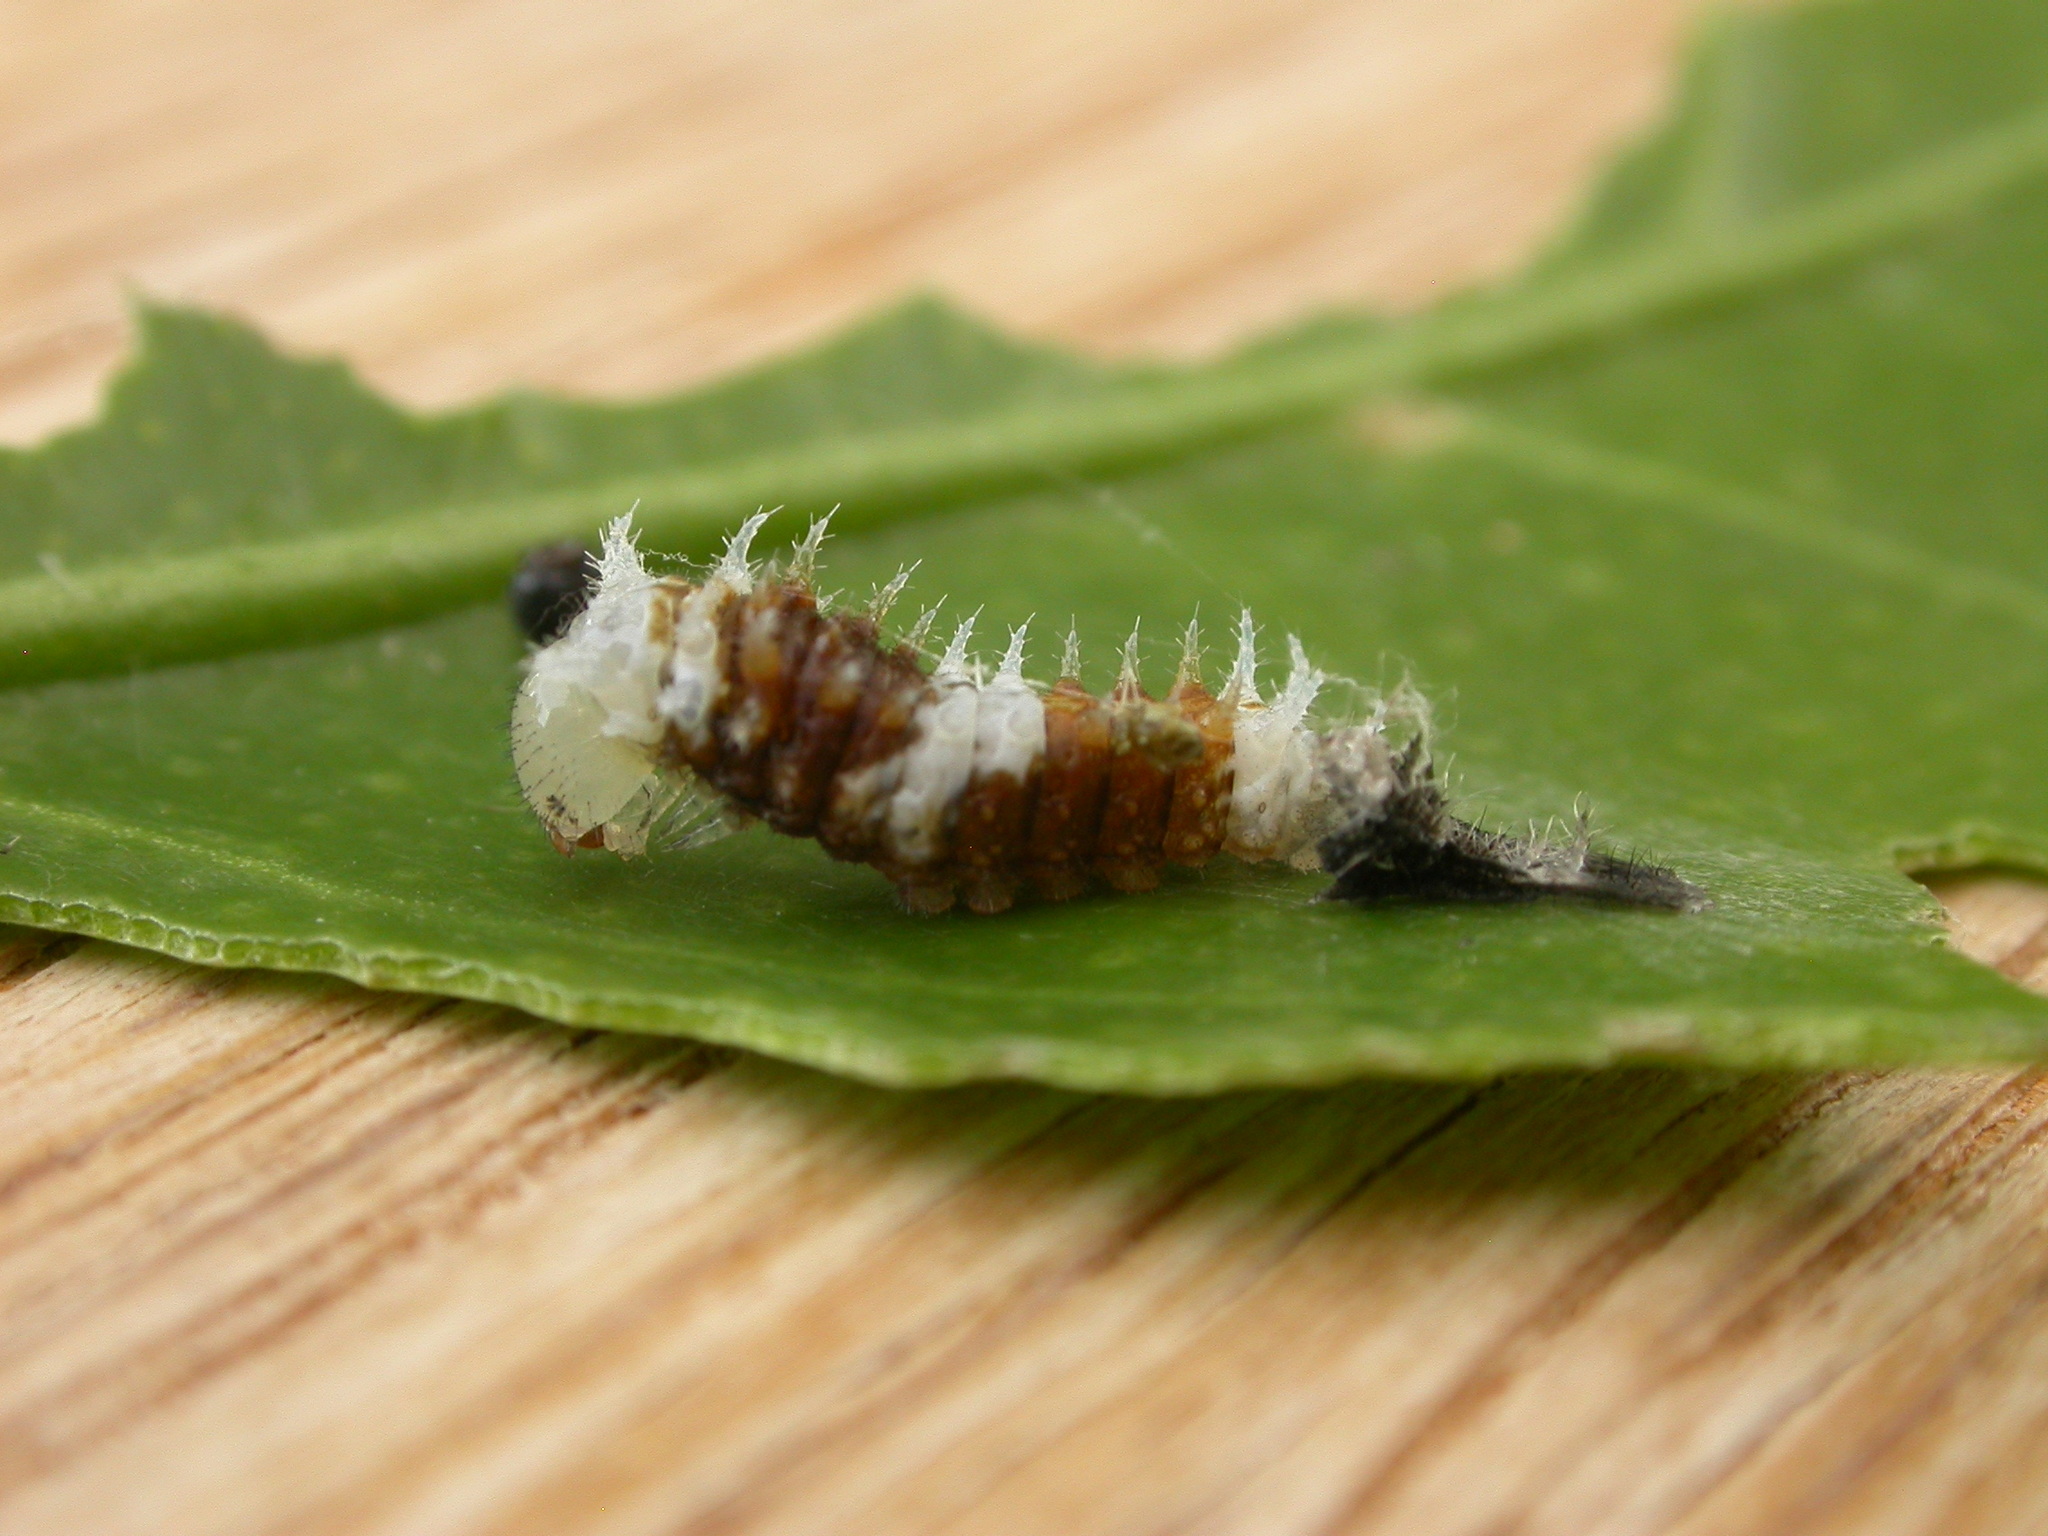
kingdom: Animalia
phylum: Arthropoda
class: Insecta
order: Lepidoptera
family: Papilionidae
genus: Papilio
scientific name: Papilio aegeus
